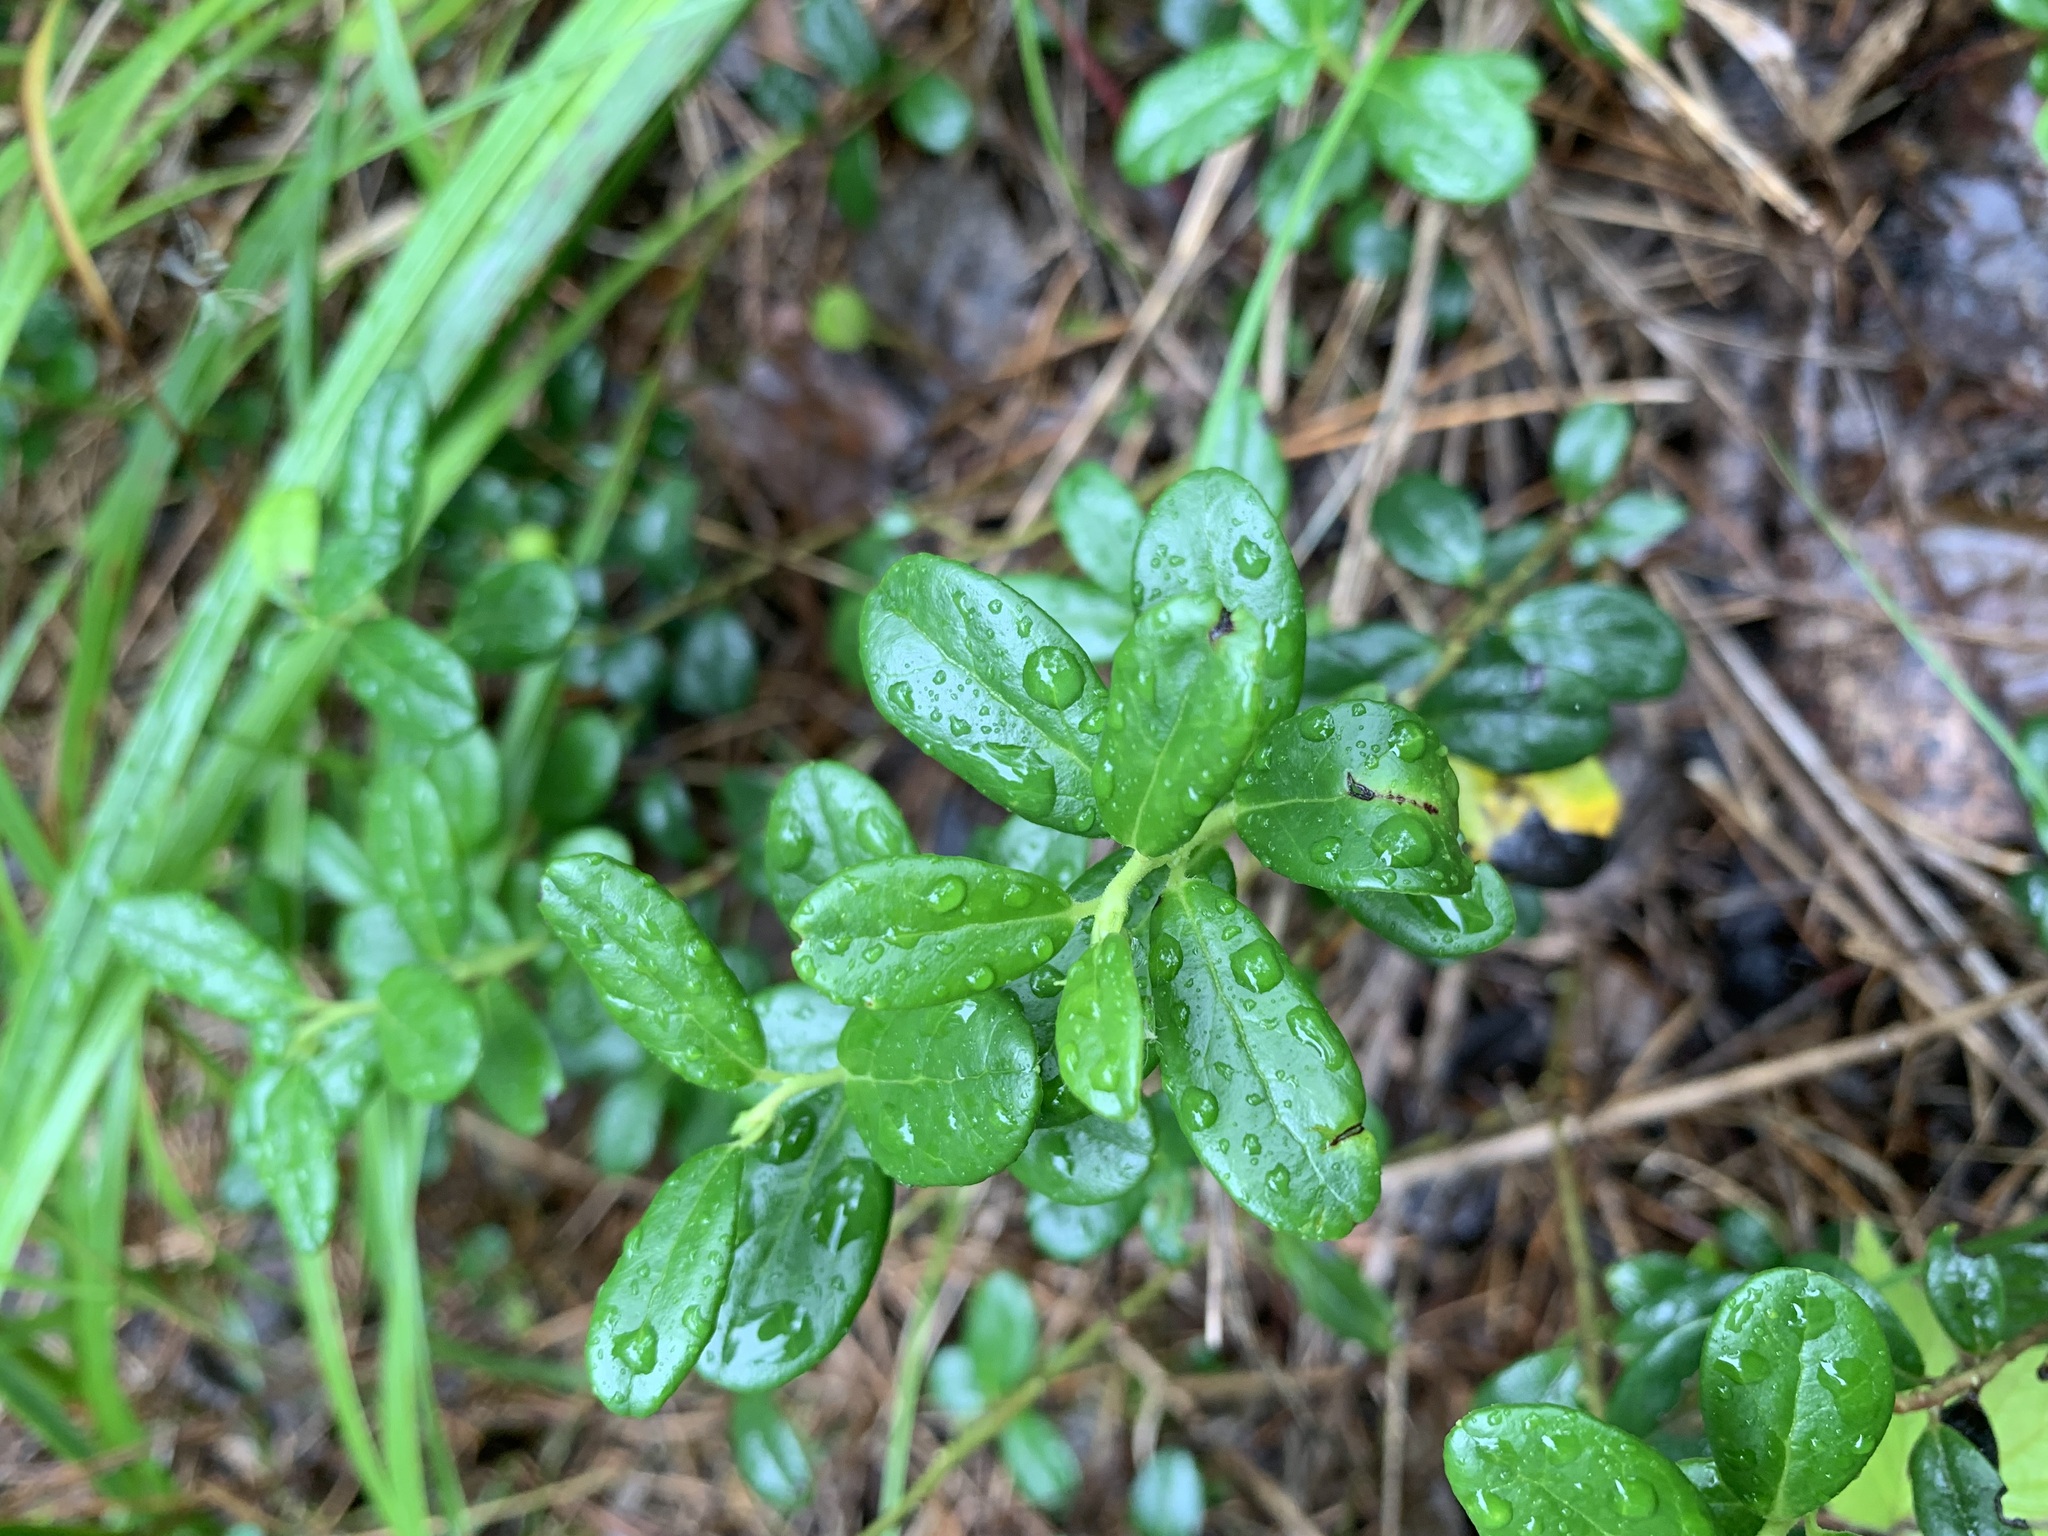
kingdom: Plantae
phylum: Tracheophyta
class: Magnoliopsida
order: Ericales
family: Ericaceae
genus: Vaccinium
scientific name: Vaccinium vitis-idaea
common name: Cowberry
